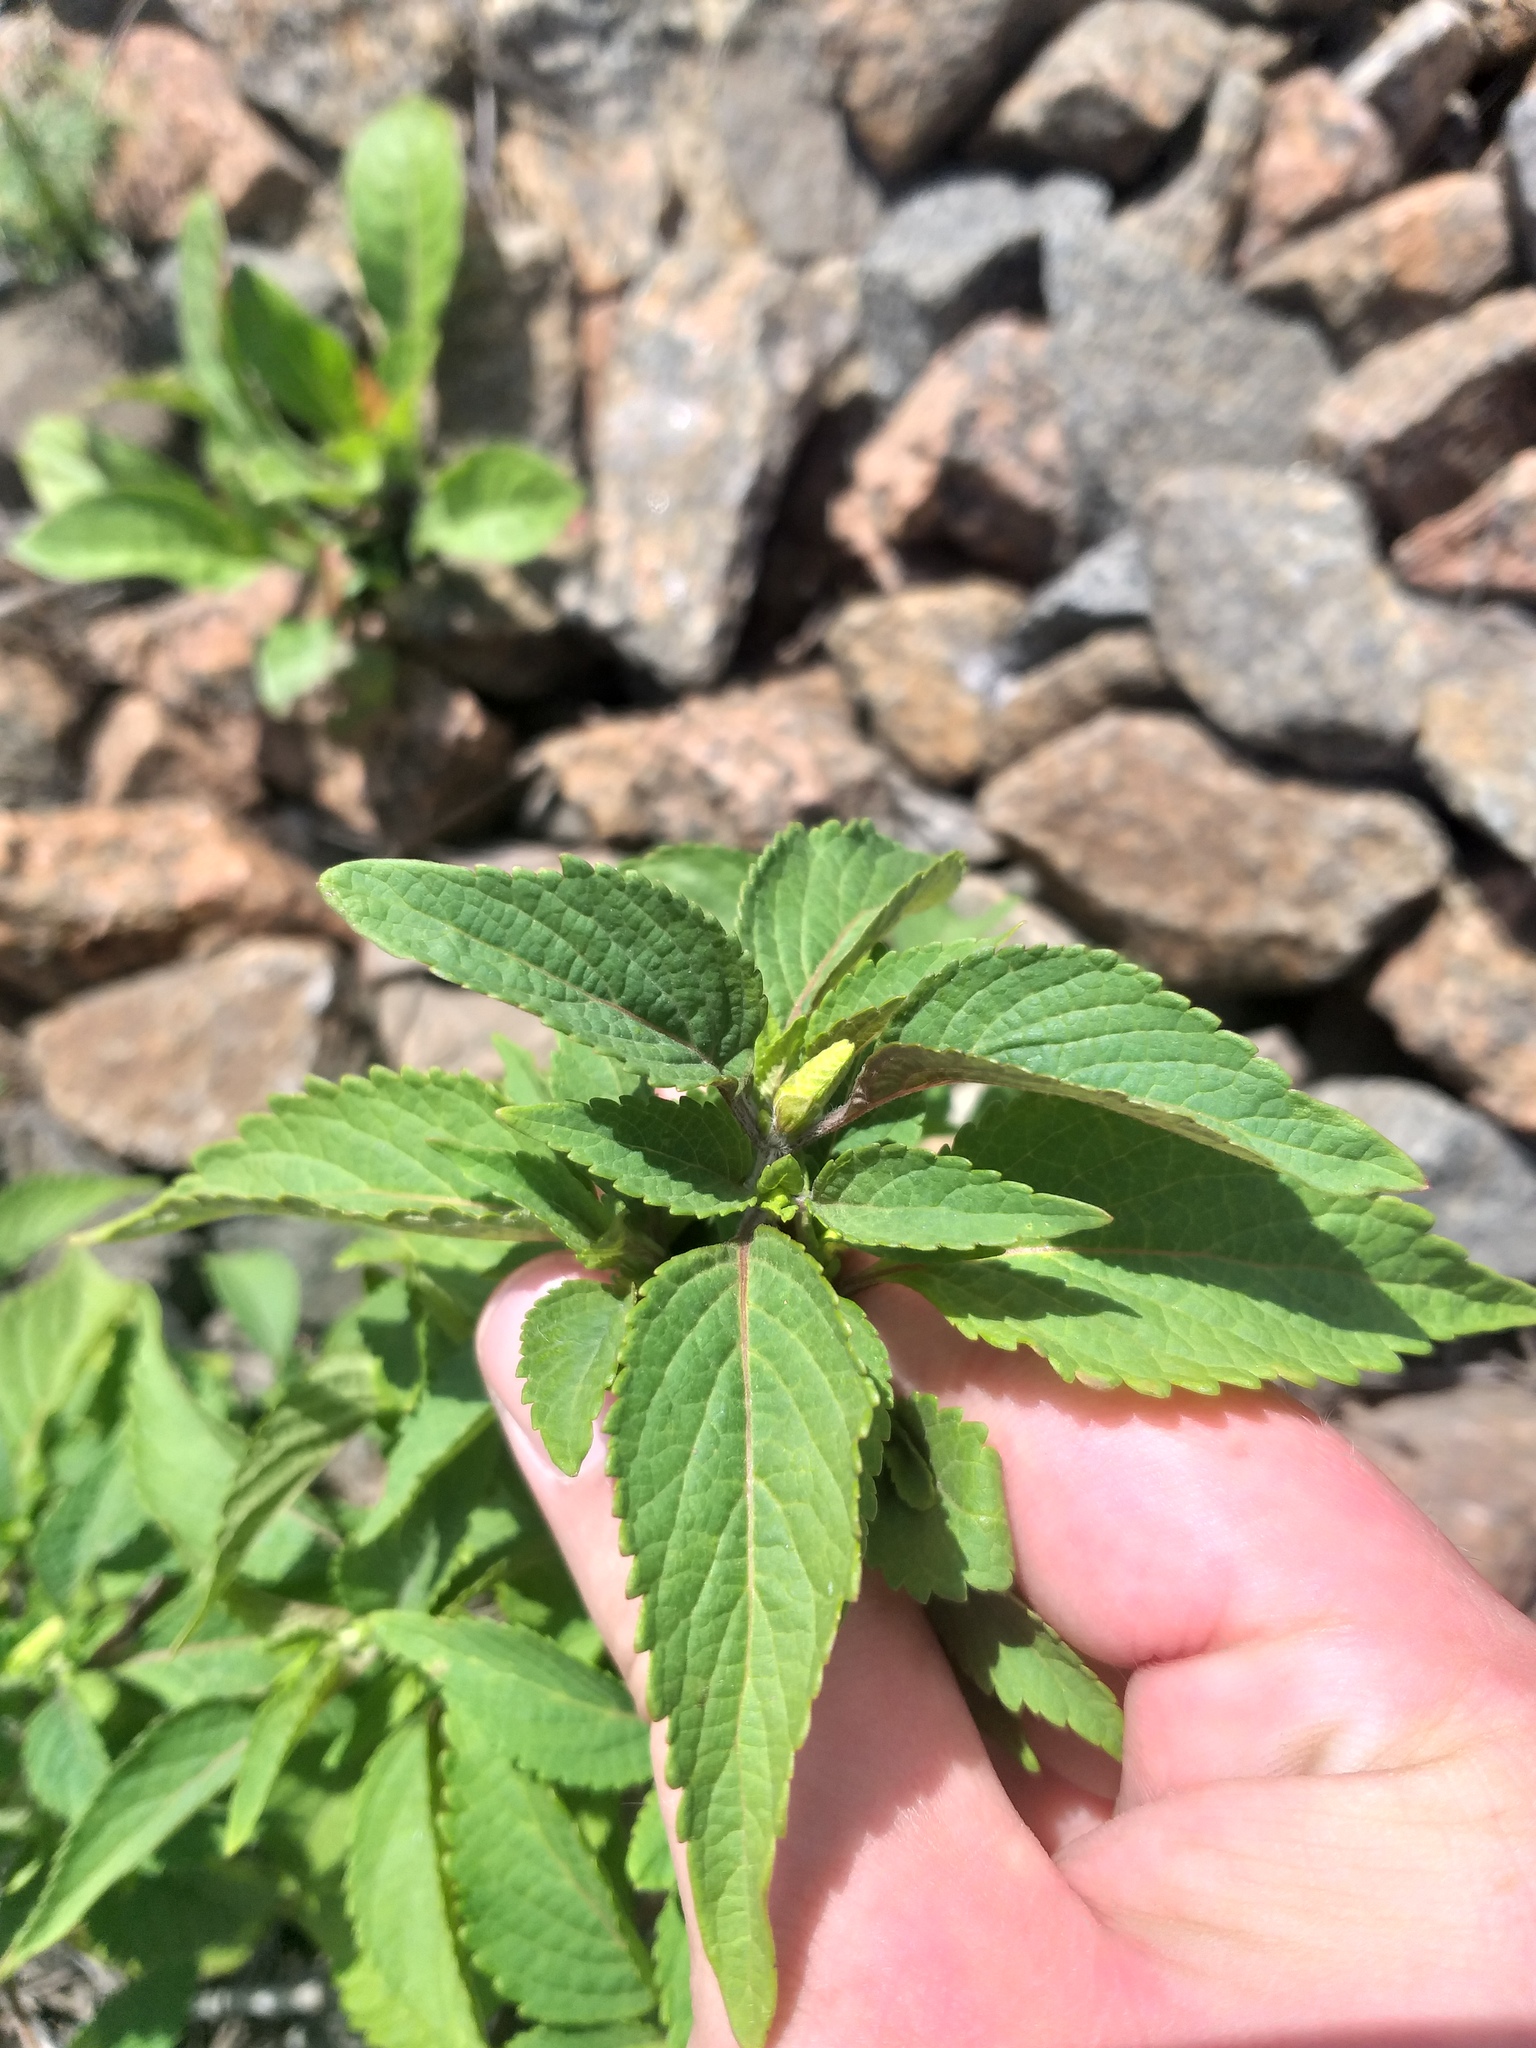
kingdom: Plantae
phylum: Tracheophyta
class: Magnoliopsida
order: Lamiales
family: Lamiaceae
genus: Elsholtzia
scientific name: Elsholtzia ciliata
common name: Ciliate elsholtzia
